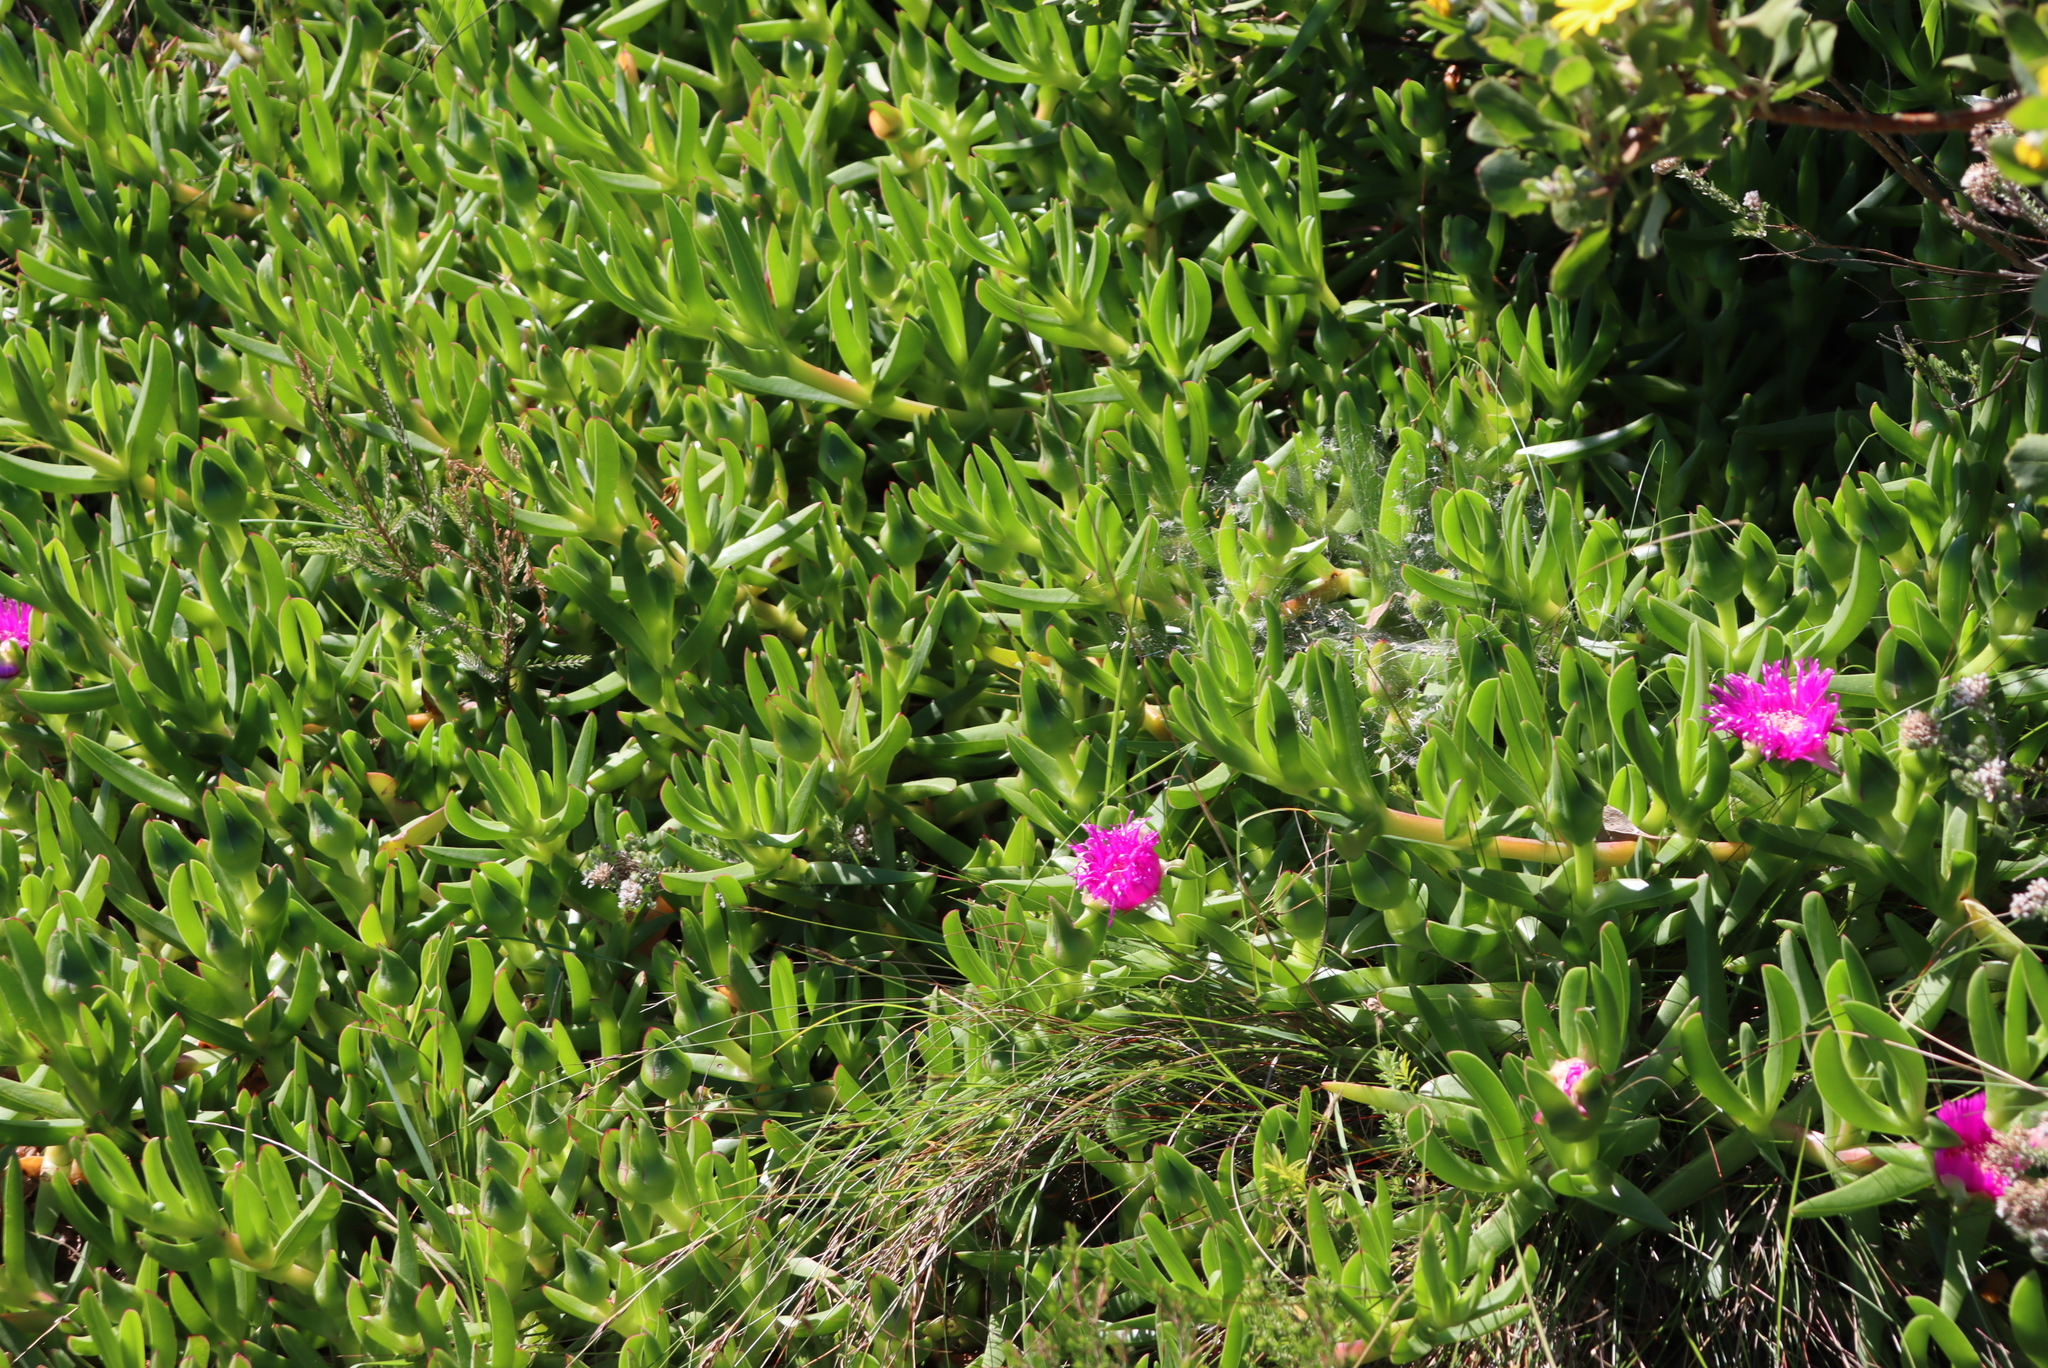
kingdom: Plantae
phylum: Tracheophyta
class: Magnoliopsida
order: Caryophyllales
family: Aizoaceae
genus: Carpobrotus
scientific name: Carpobrotus deliciosus
